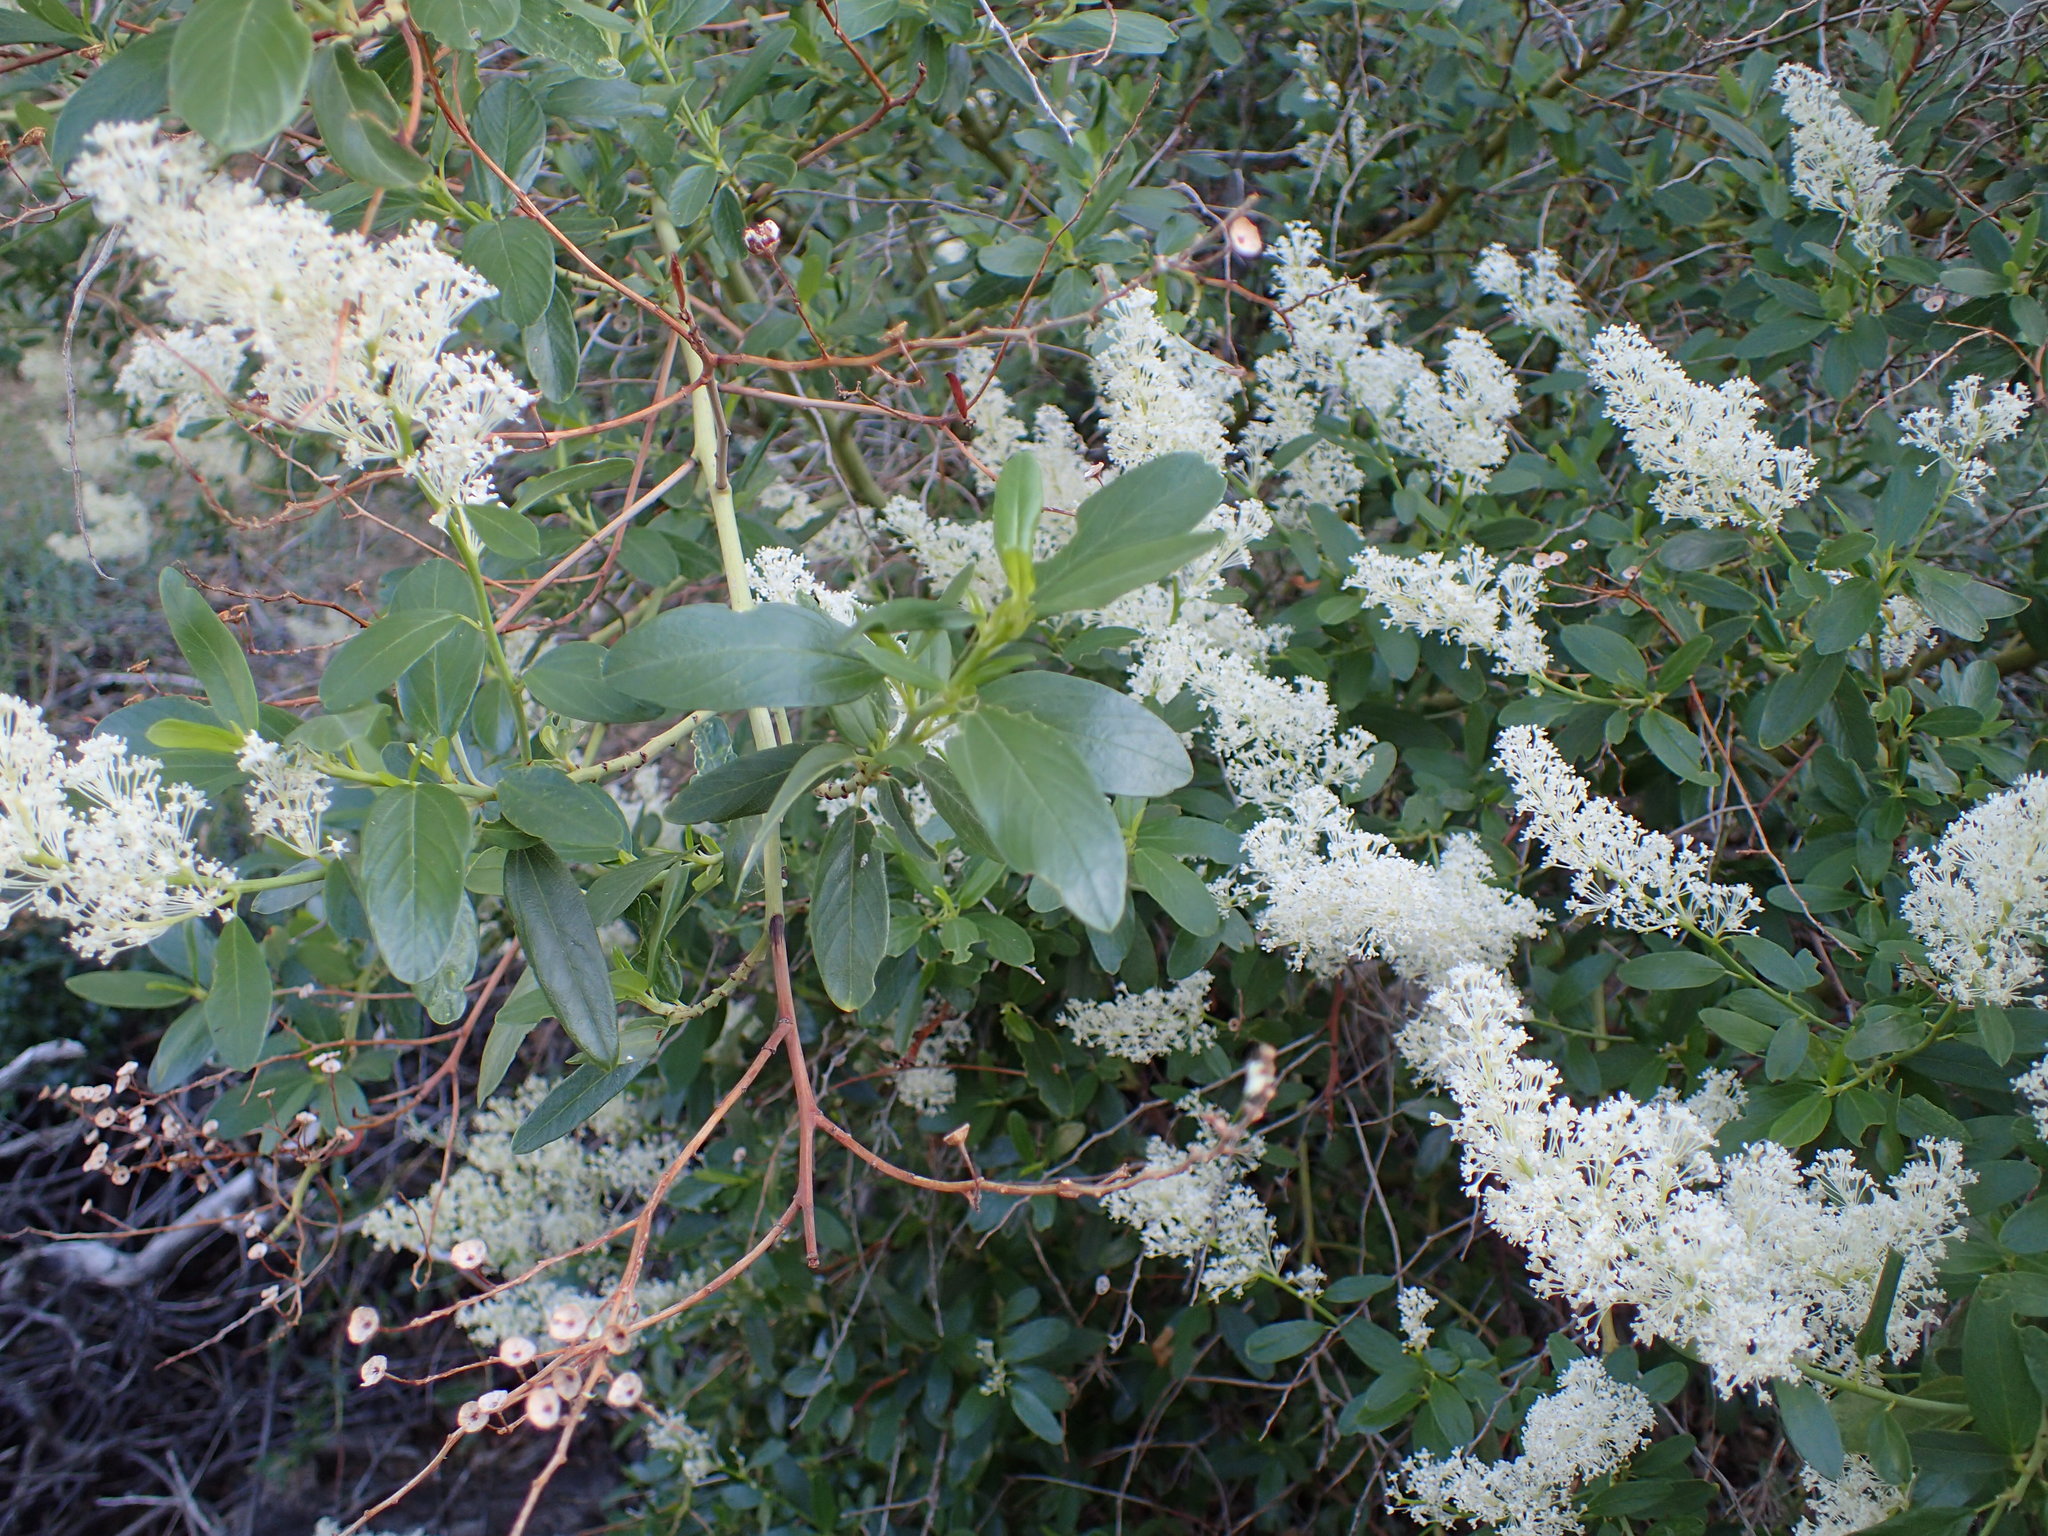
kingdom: Plantae
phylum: Tracheophyta
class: Magnoliopsida
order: Rosales
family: Rhamnaceae
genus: Ceanothus
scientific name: Ceanothus palmeri
